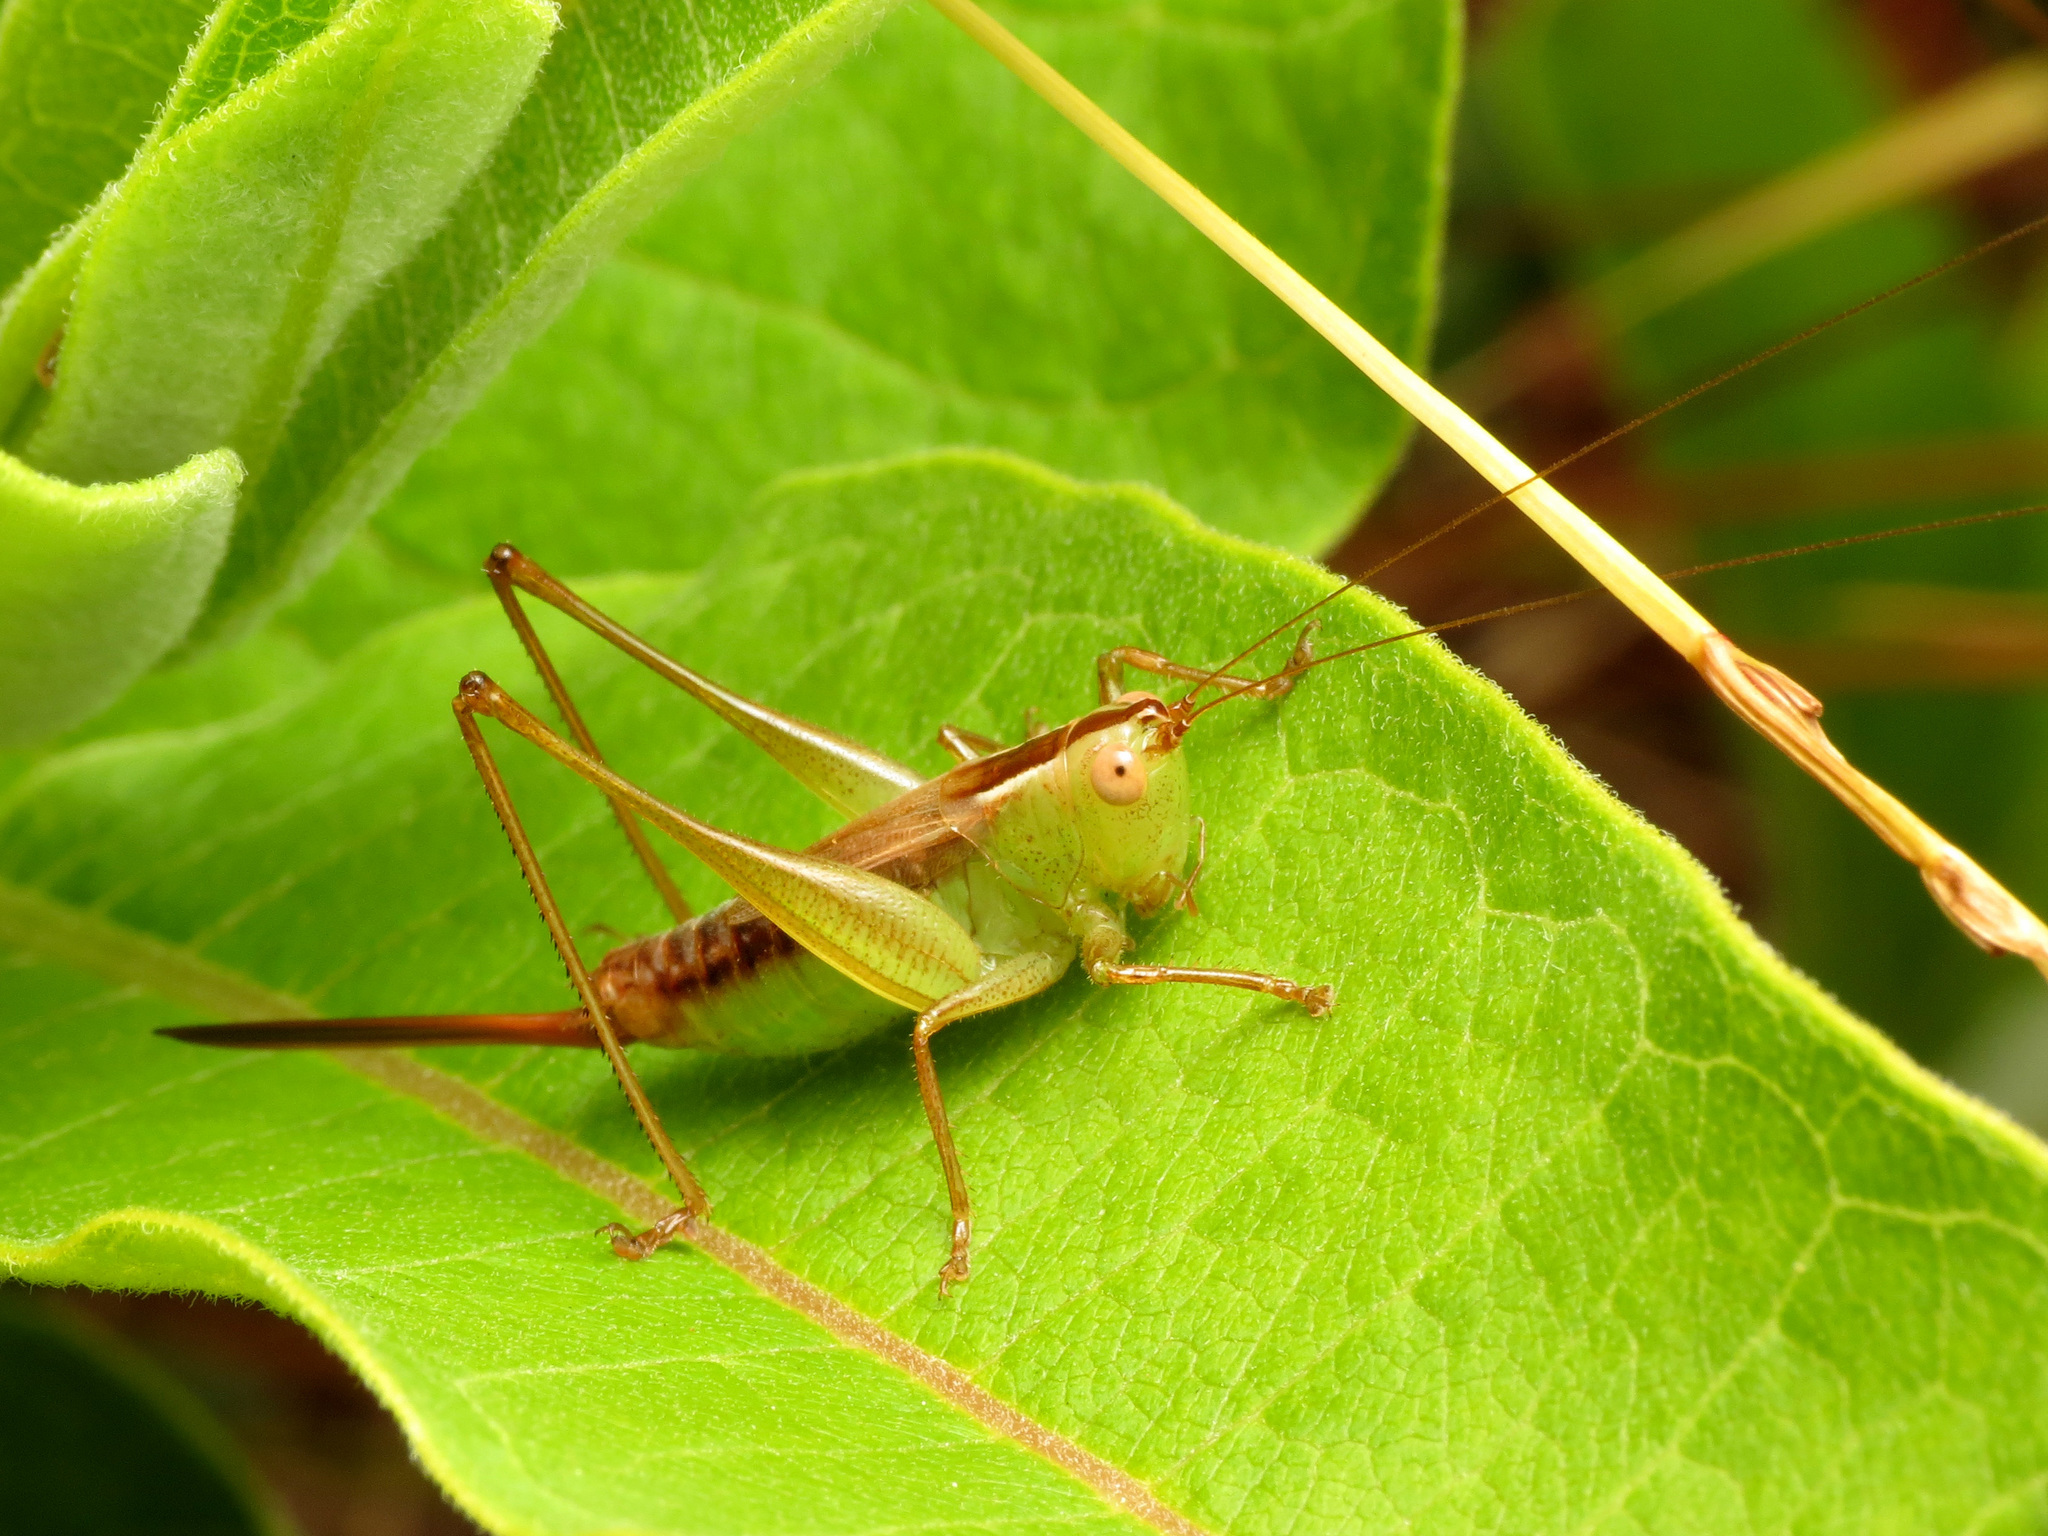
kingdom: Animalia
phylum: Arthropoda
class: Insecta
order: Orthoptera
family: Tettigoniidae
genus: Conocephalus
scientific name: Conocephalus brevipennis
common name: Short-winged meadow katydid
